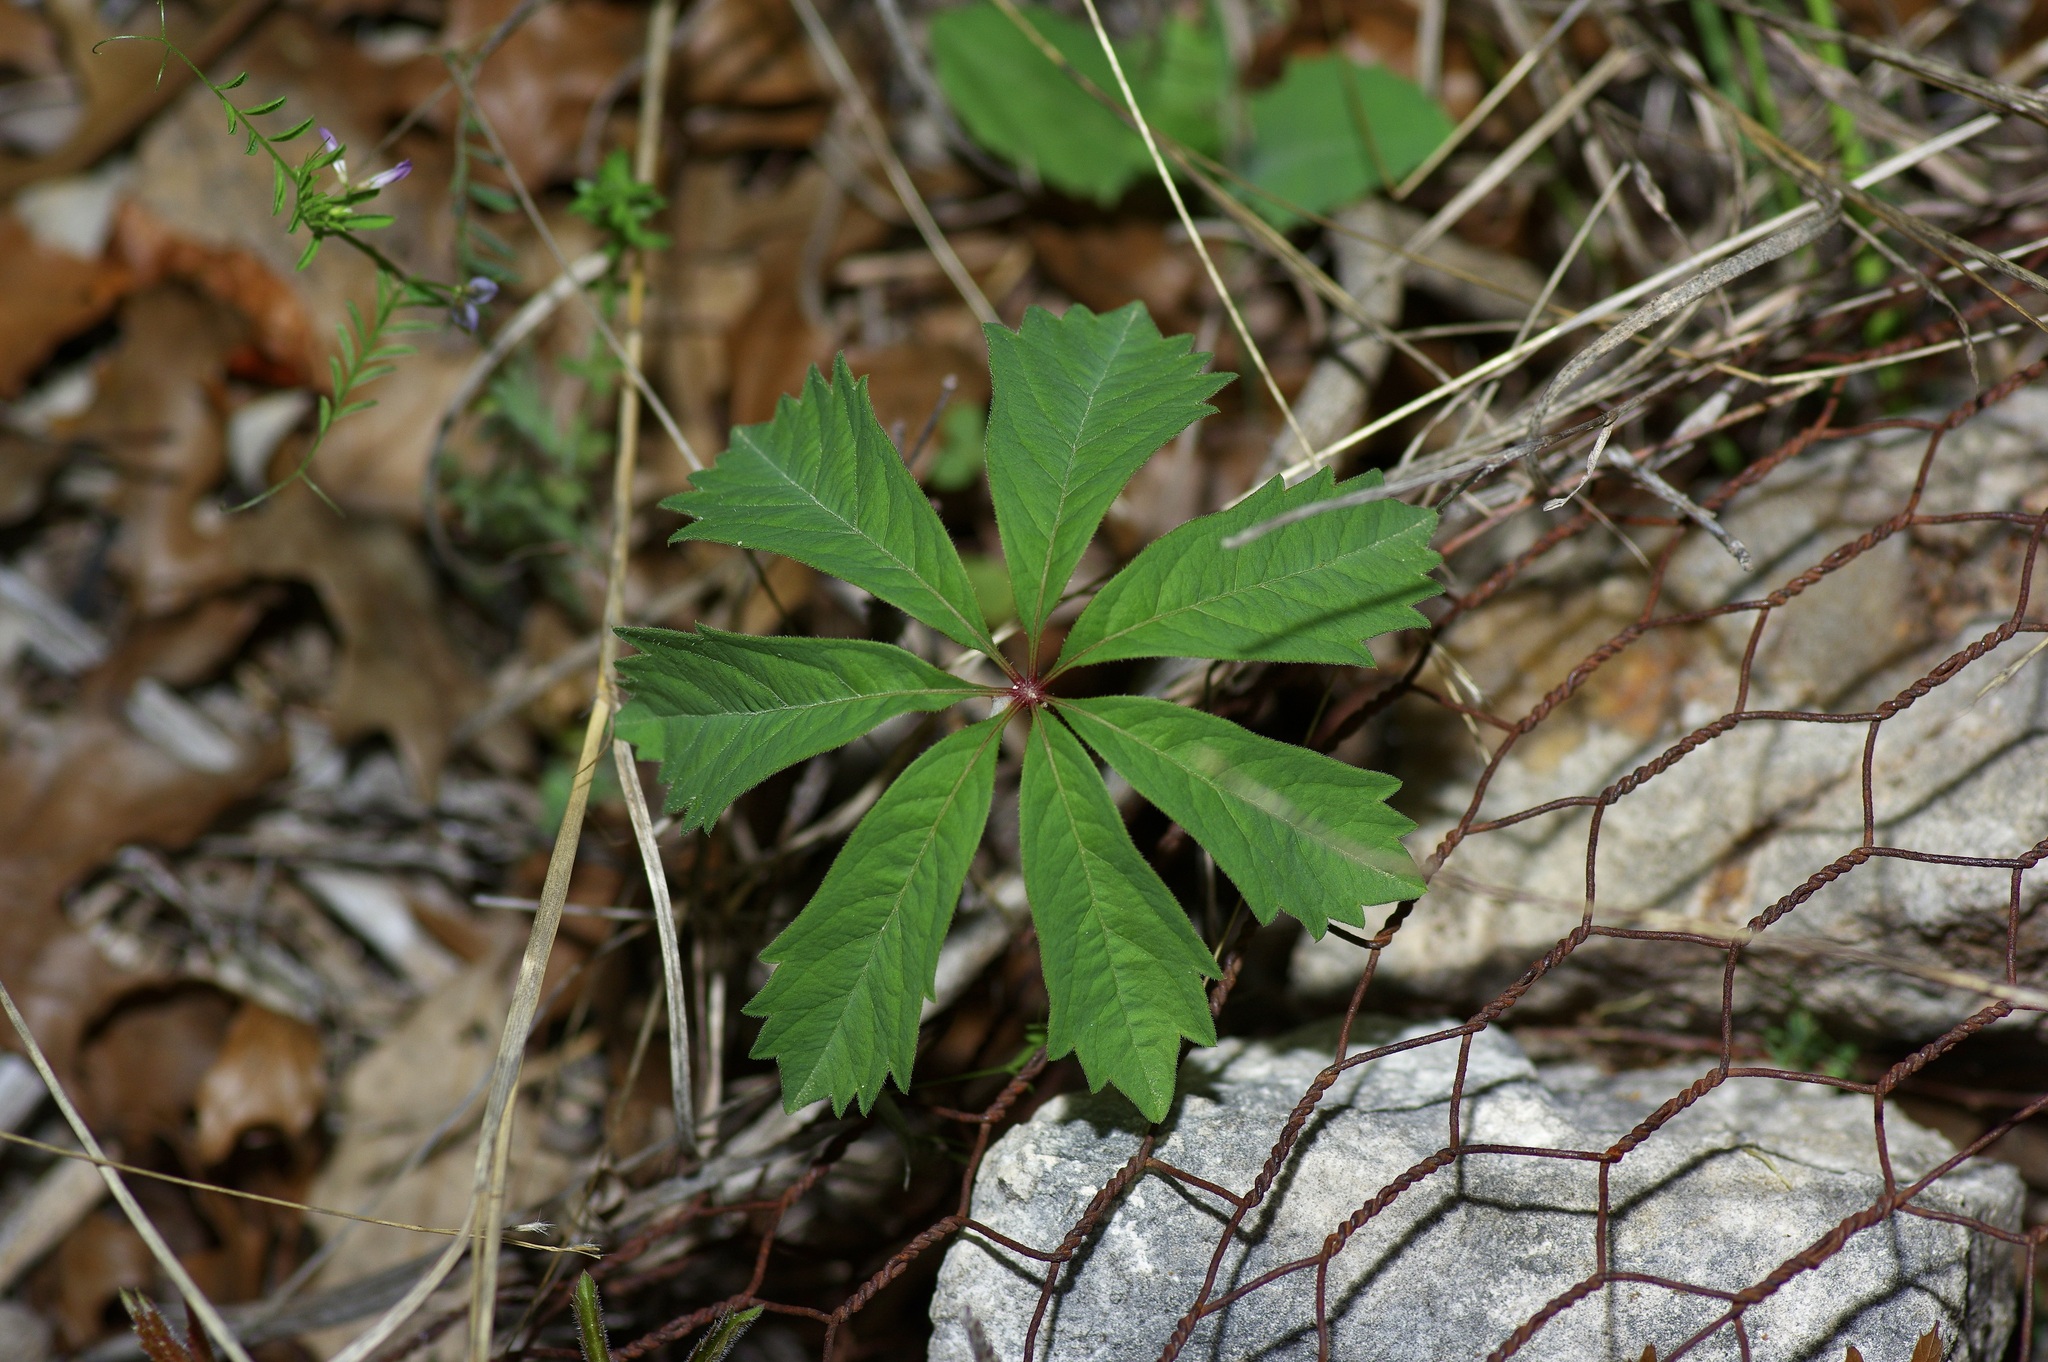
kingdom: Plantae
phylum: Tracheophyta
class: Magnoliopsida
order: Vitales
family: Vitaceae
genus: Parthenocissus
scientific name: Parthenocissus heptaphylla
